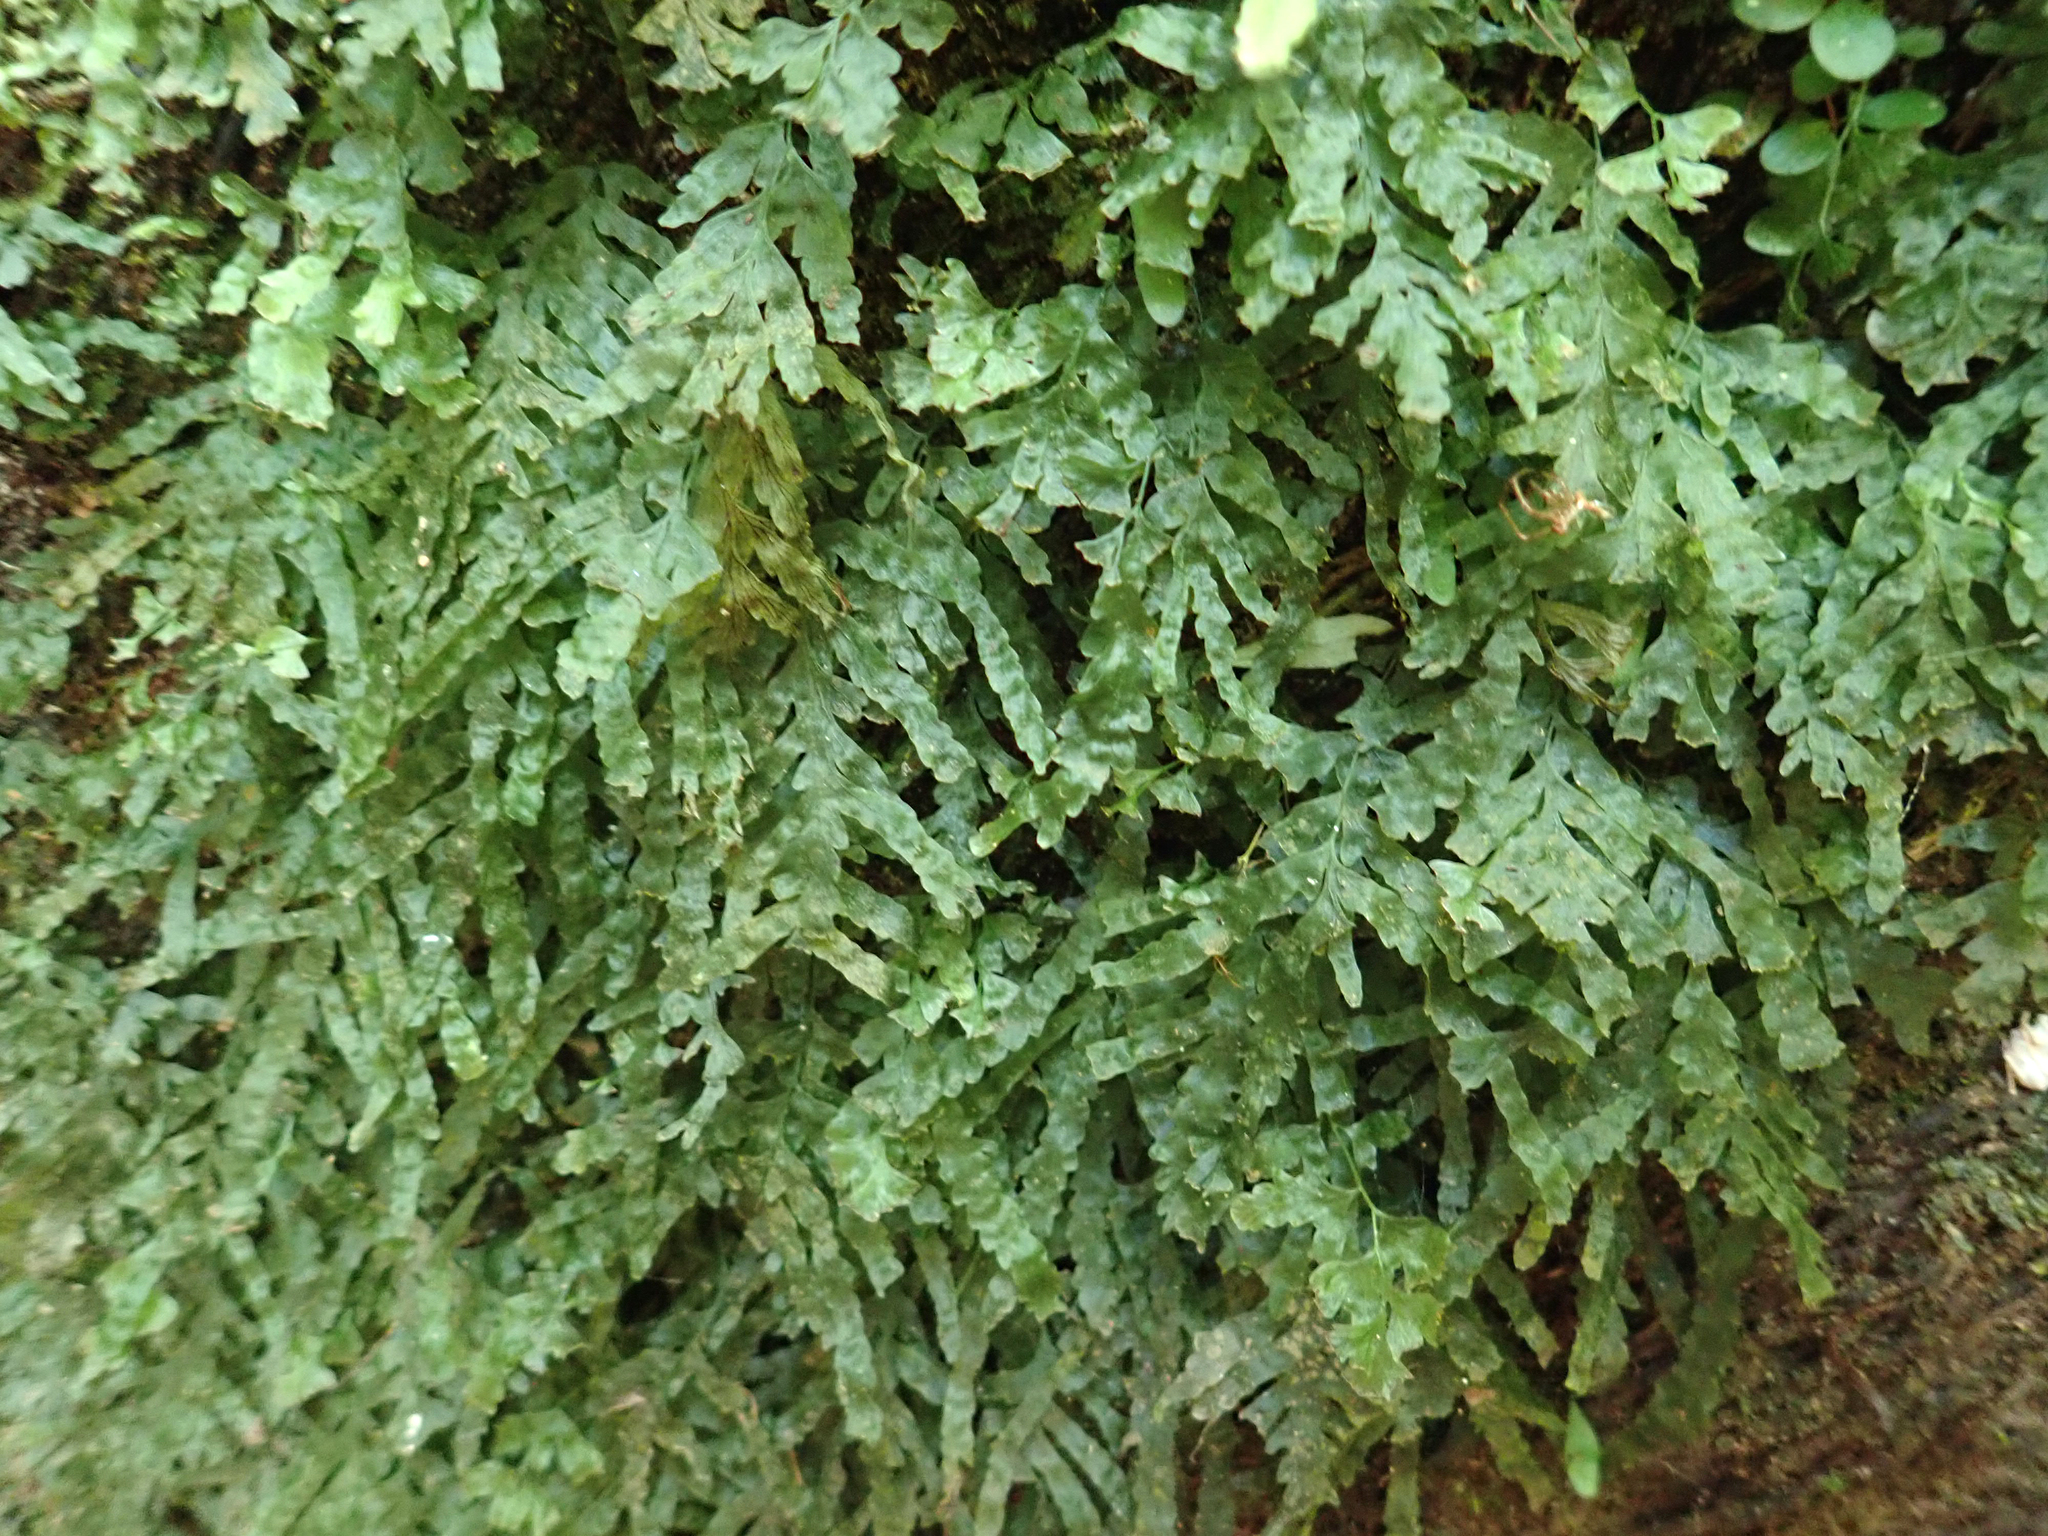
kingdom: Plantae
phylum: Tracheophyta
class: Polypodiopsida
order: Hymenophyllales
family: Hymenophyllaceae
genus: Polyphlebium
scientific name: Polyphlebium venosum
